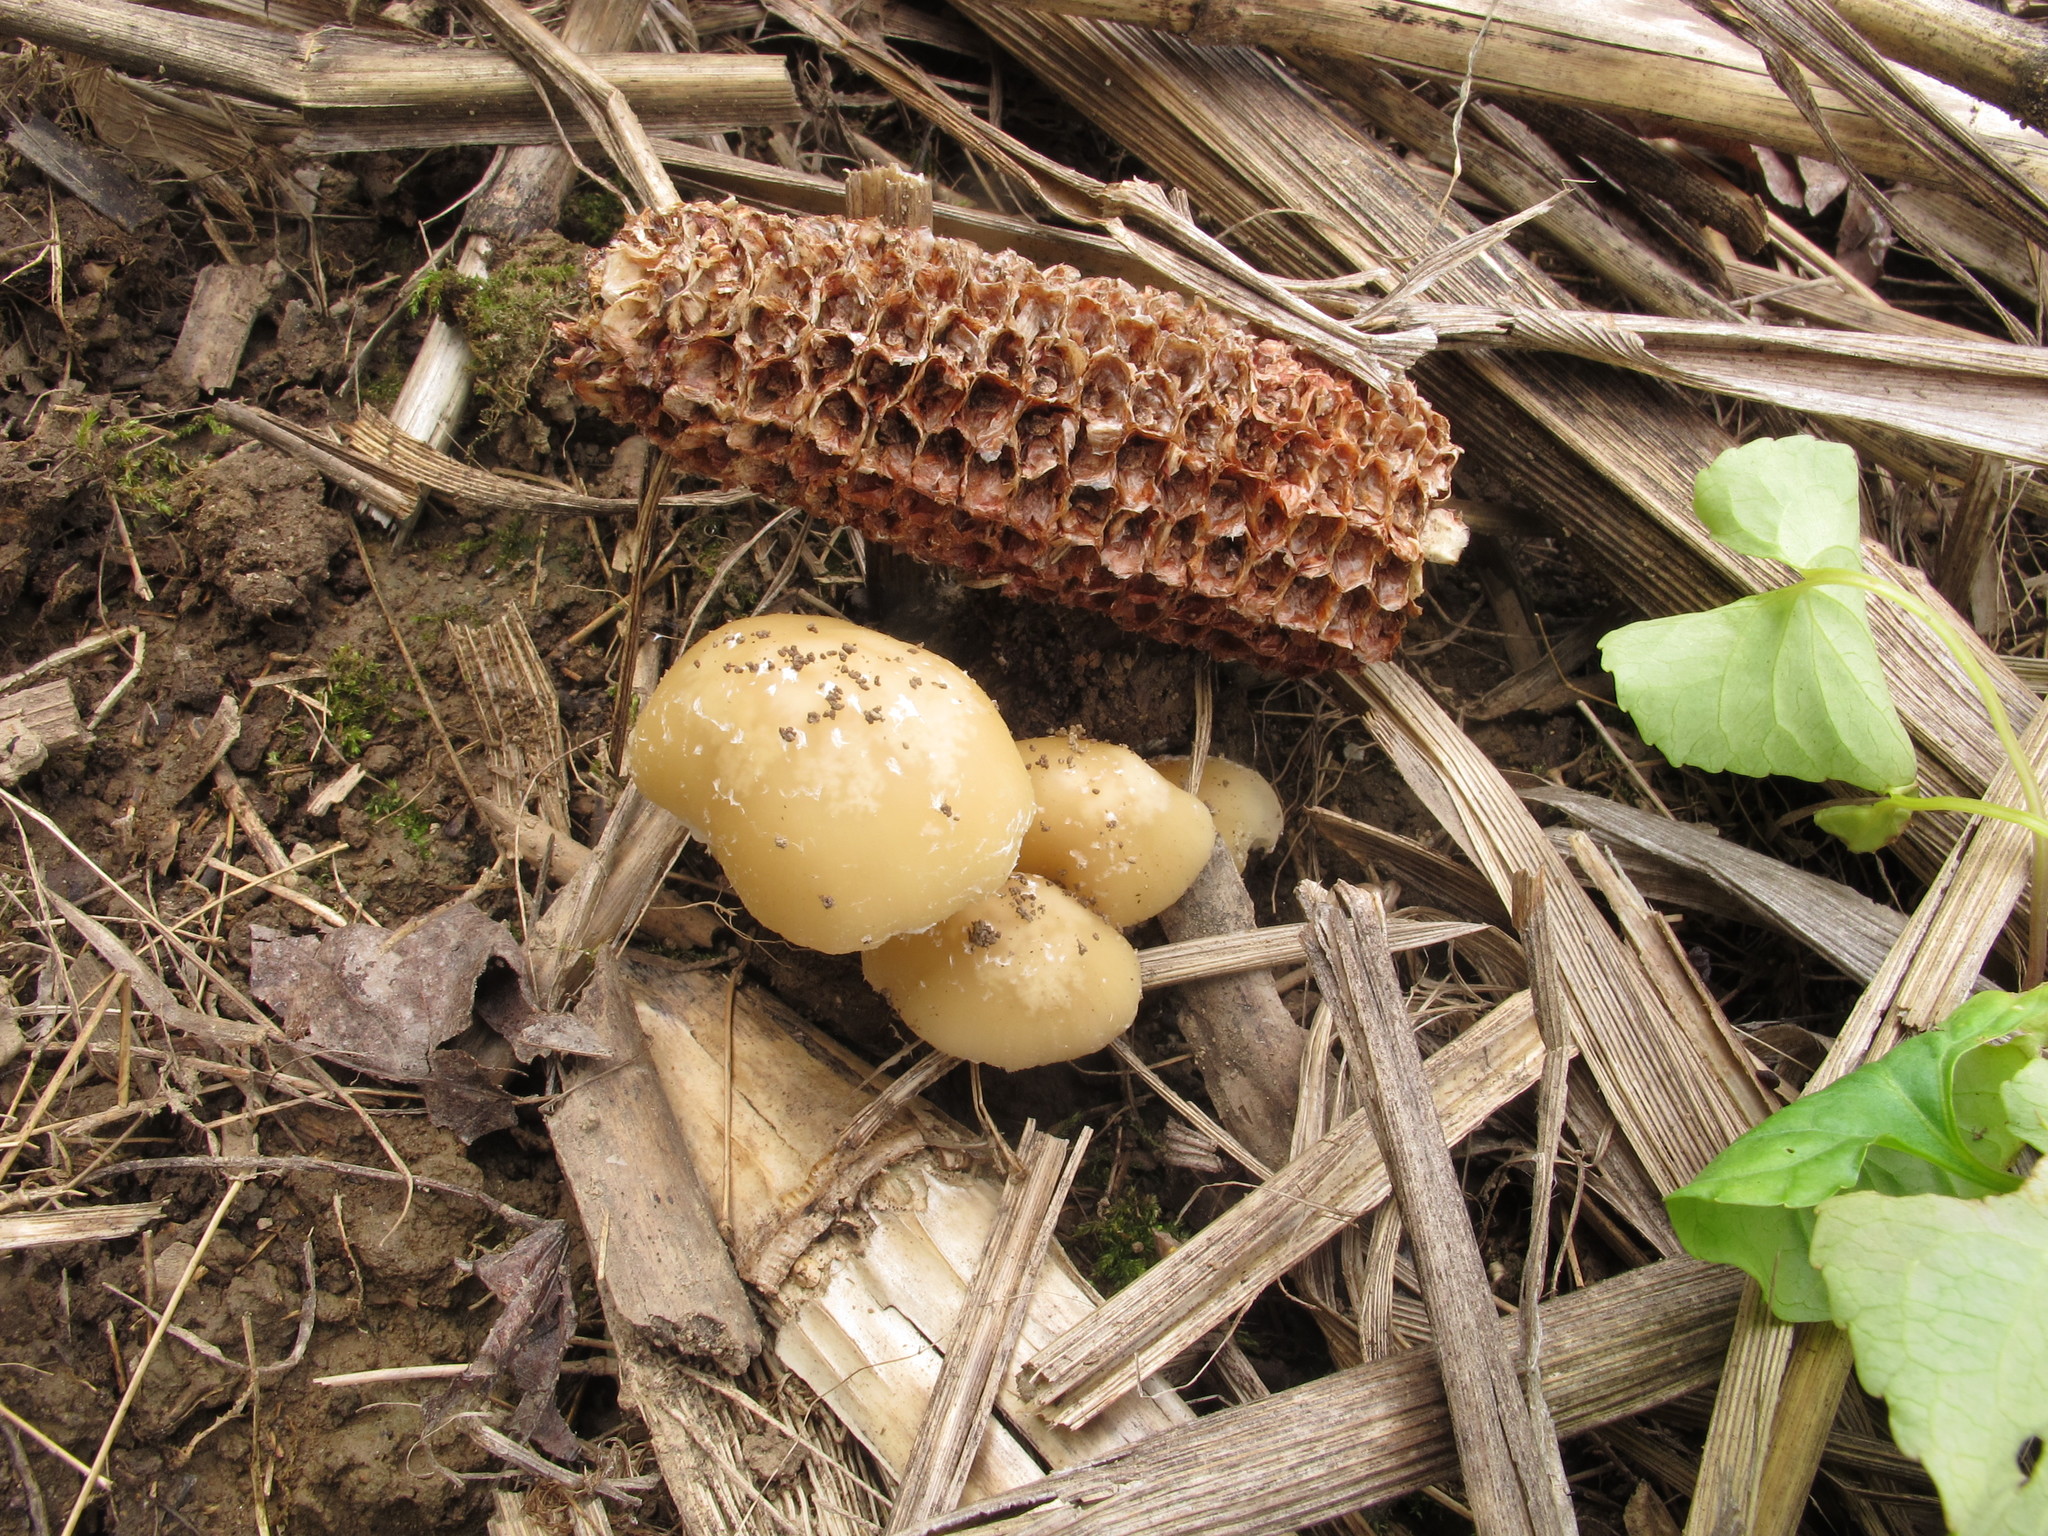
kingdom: Fungi
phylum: Basidiomycota
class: Agaricomycetes
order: Agaricales
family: Psathyrellaceae
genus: Candolleomyces
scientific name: Candolleomyces candolleanus
